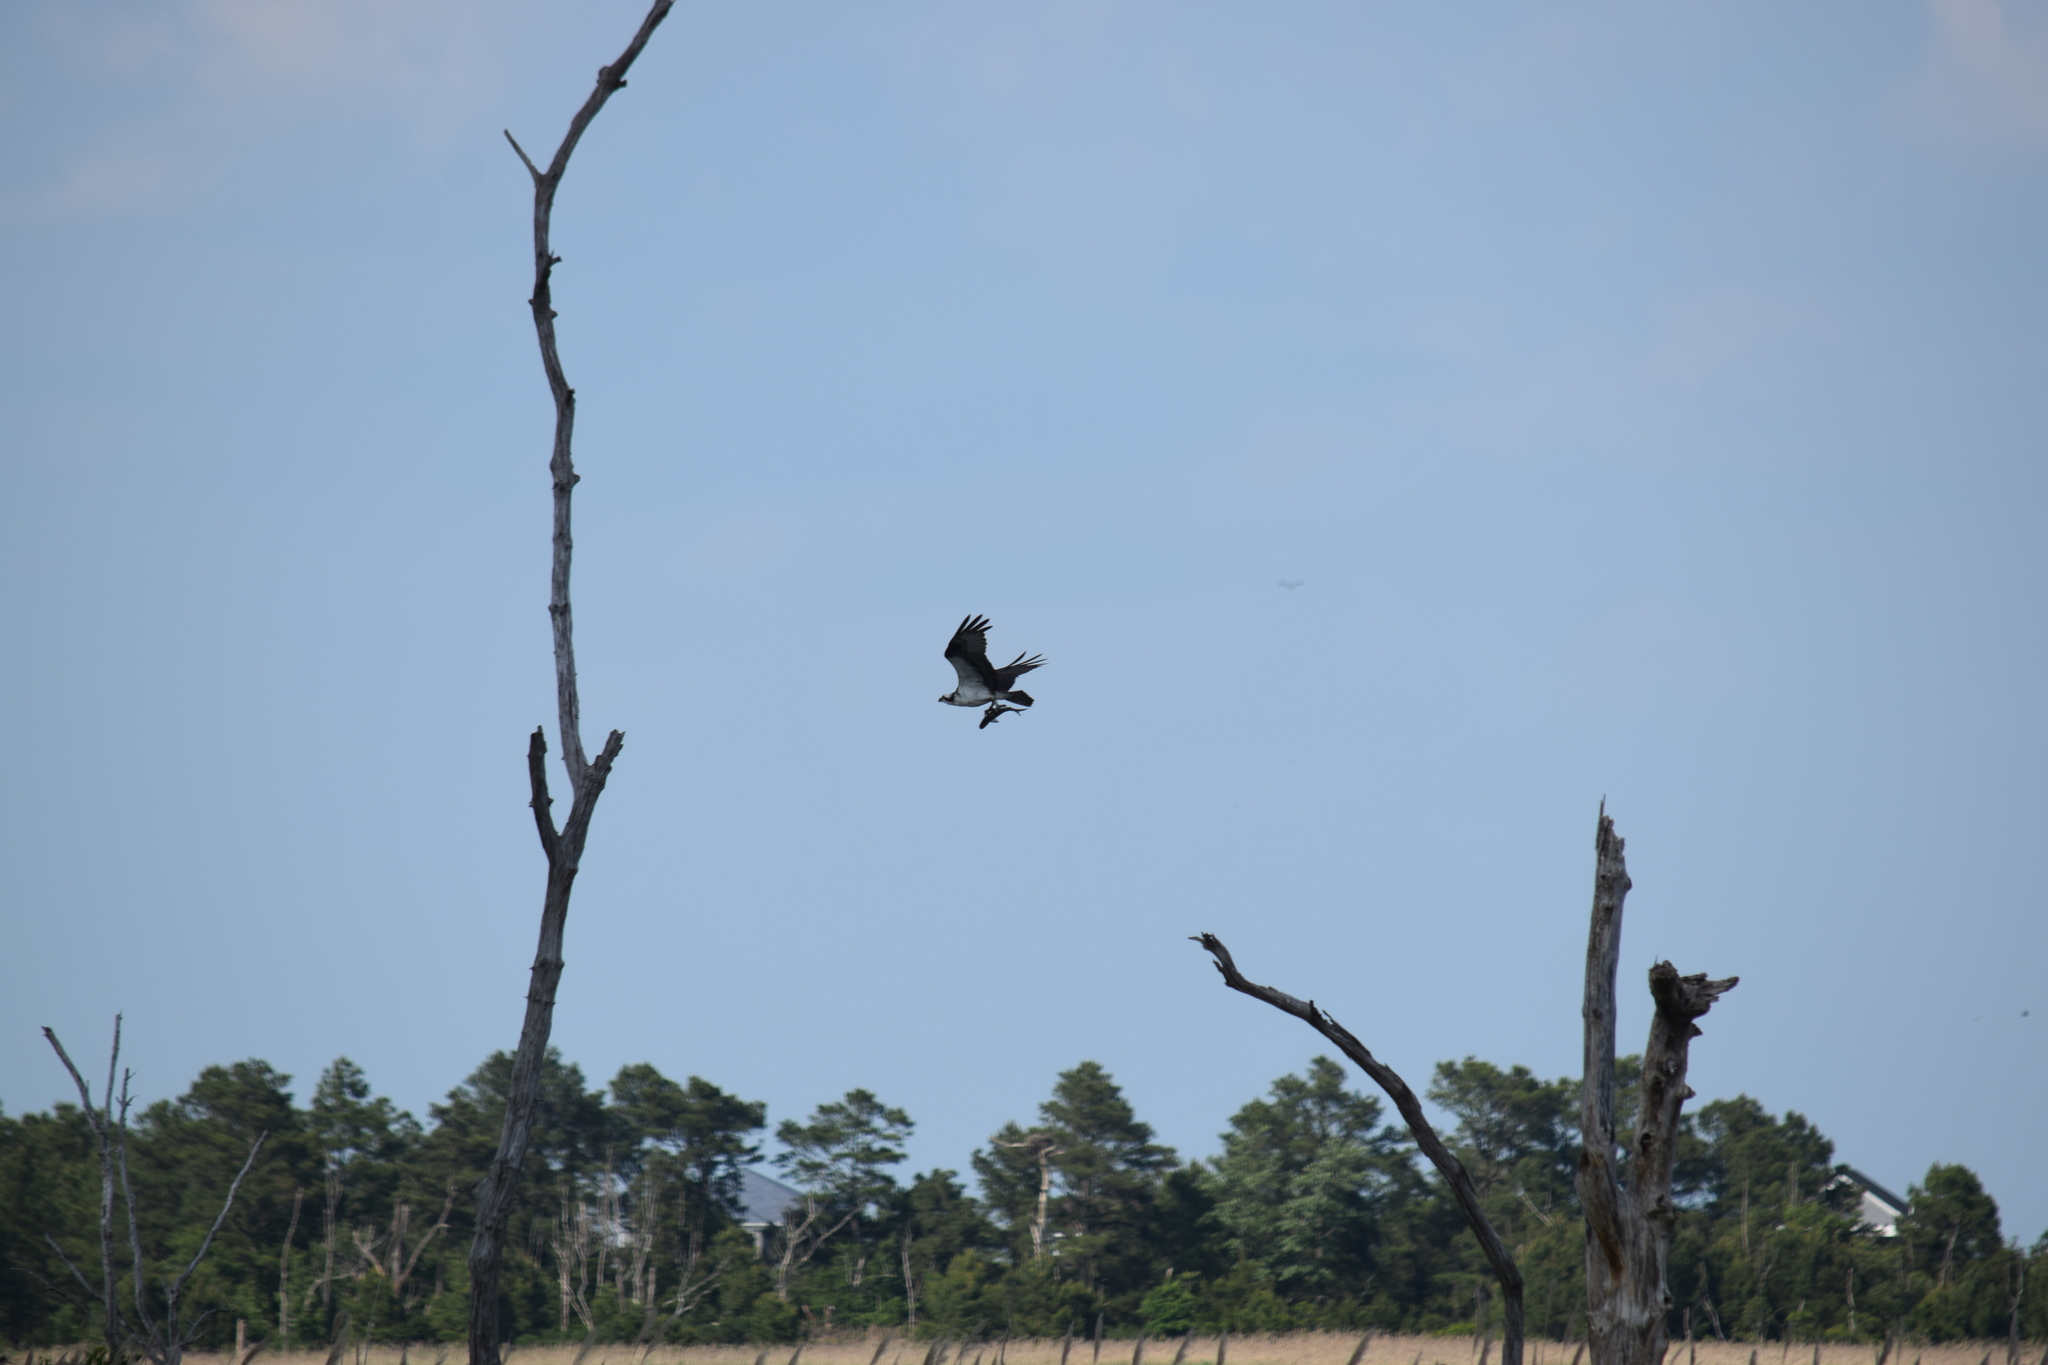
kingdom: Animalia
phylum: Chordata
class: Aves
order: Accipitriformes
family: Pandionidae
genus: Pandion
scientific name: Pandion haliaetus
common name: Osprey
